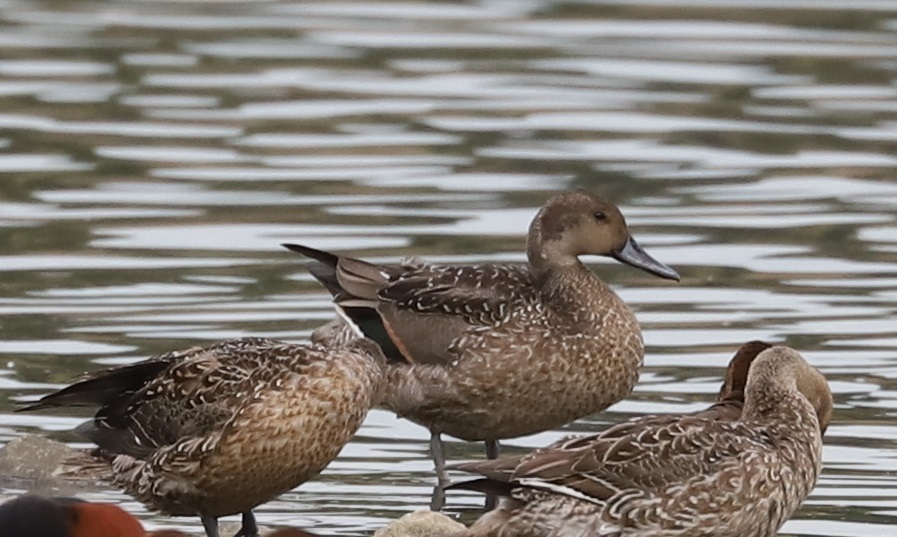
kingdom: Animalia
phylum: Chordata
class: Aves
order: Anseriformes
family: Anatidae
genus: Anas
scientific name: Anas acuta
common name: Northern pintail
